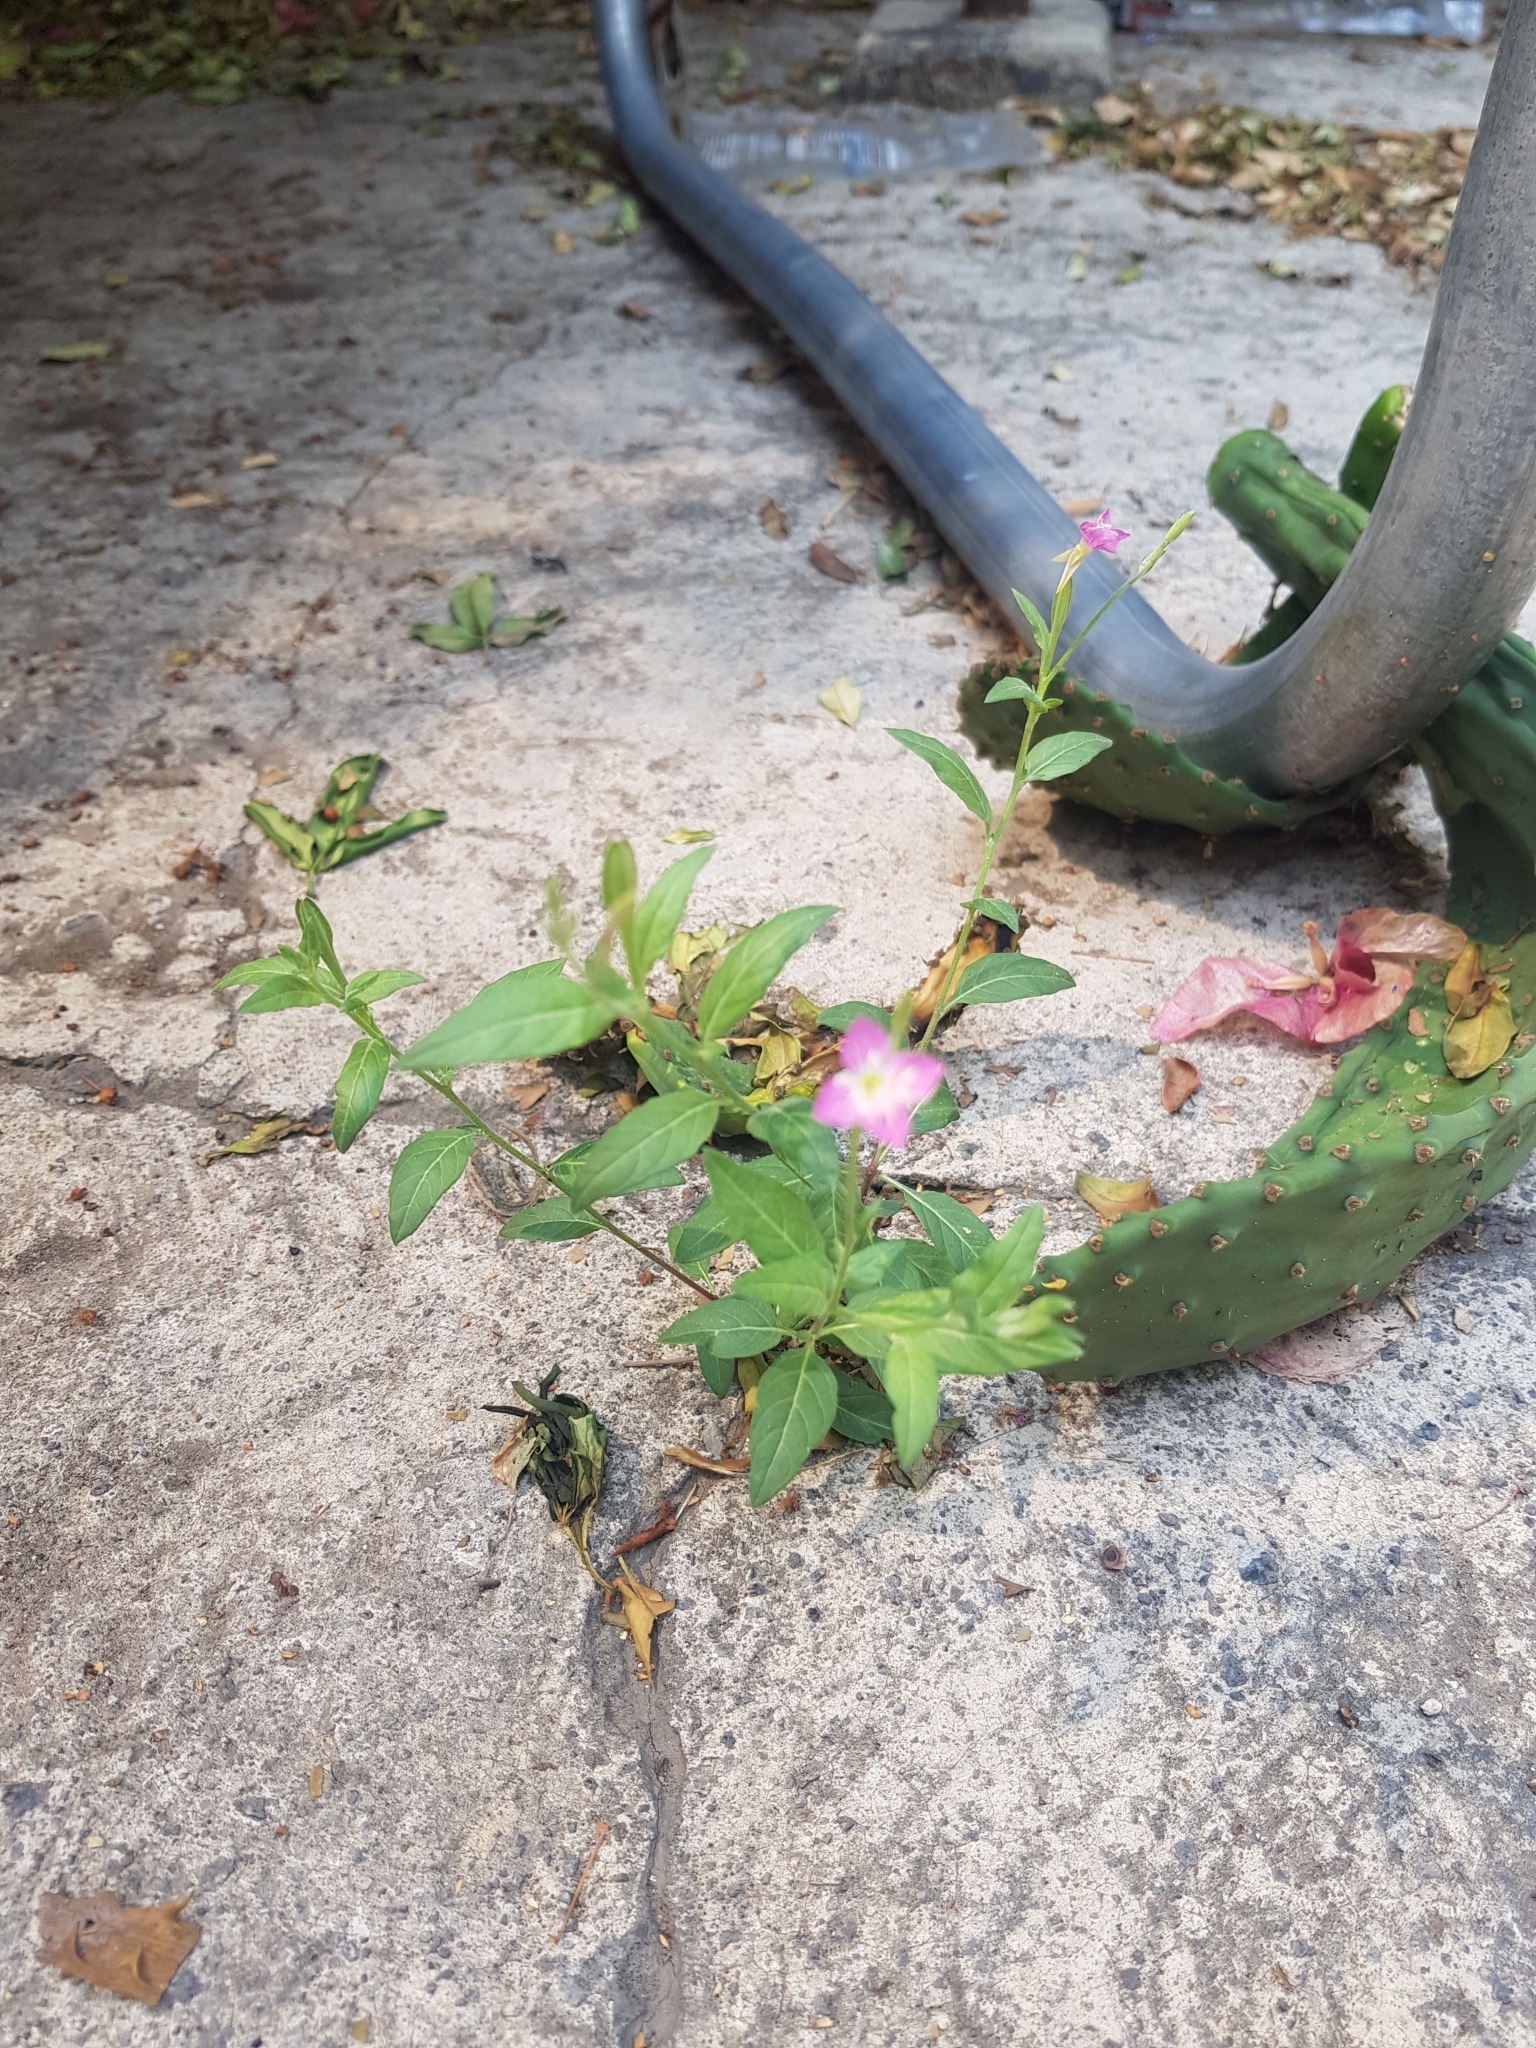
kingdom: Plantae
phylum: Tracheophyta
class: Magnoliopsida
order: Myrtales
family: Onagraceae
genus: Oenothera
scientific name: Oenothera rosea
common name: Rosy evening-primrose
